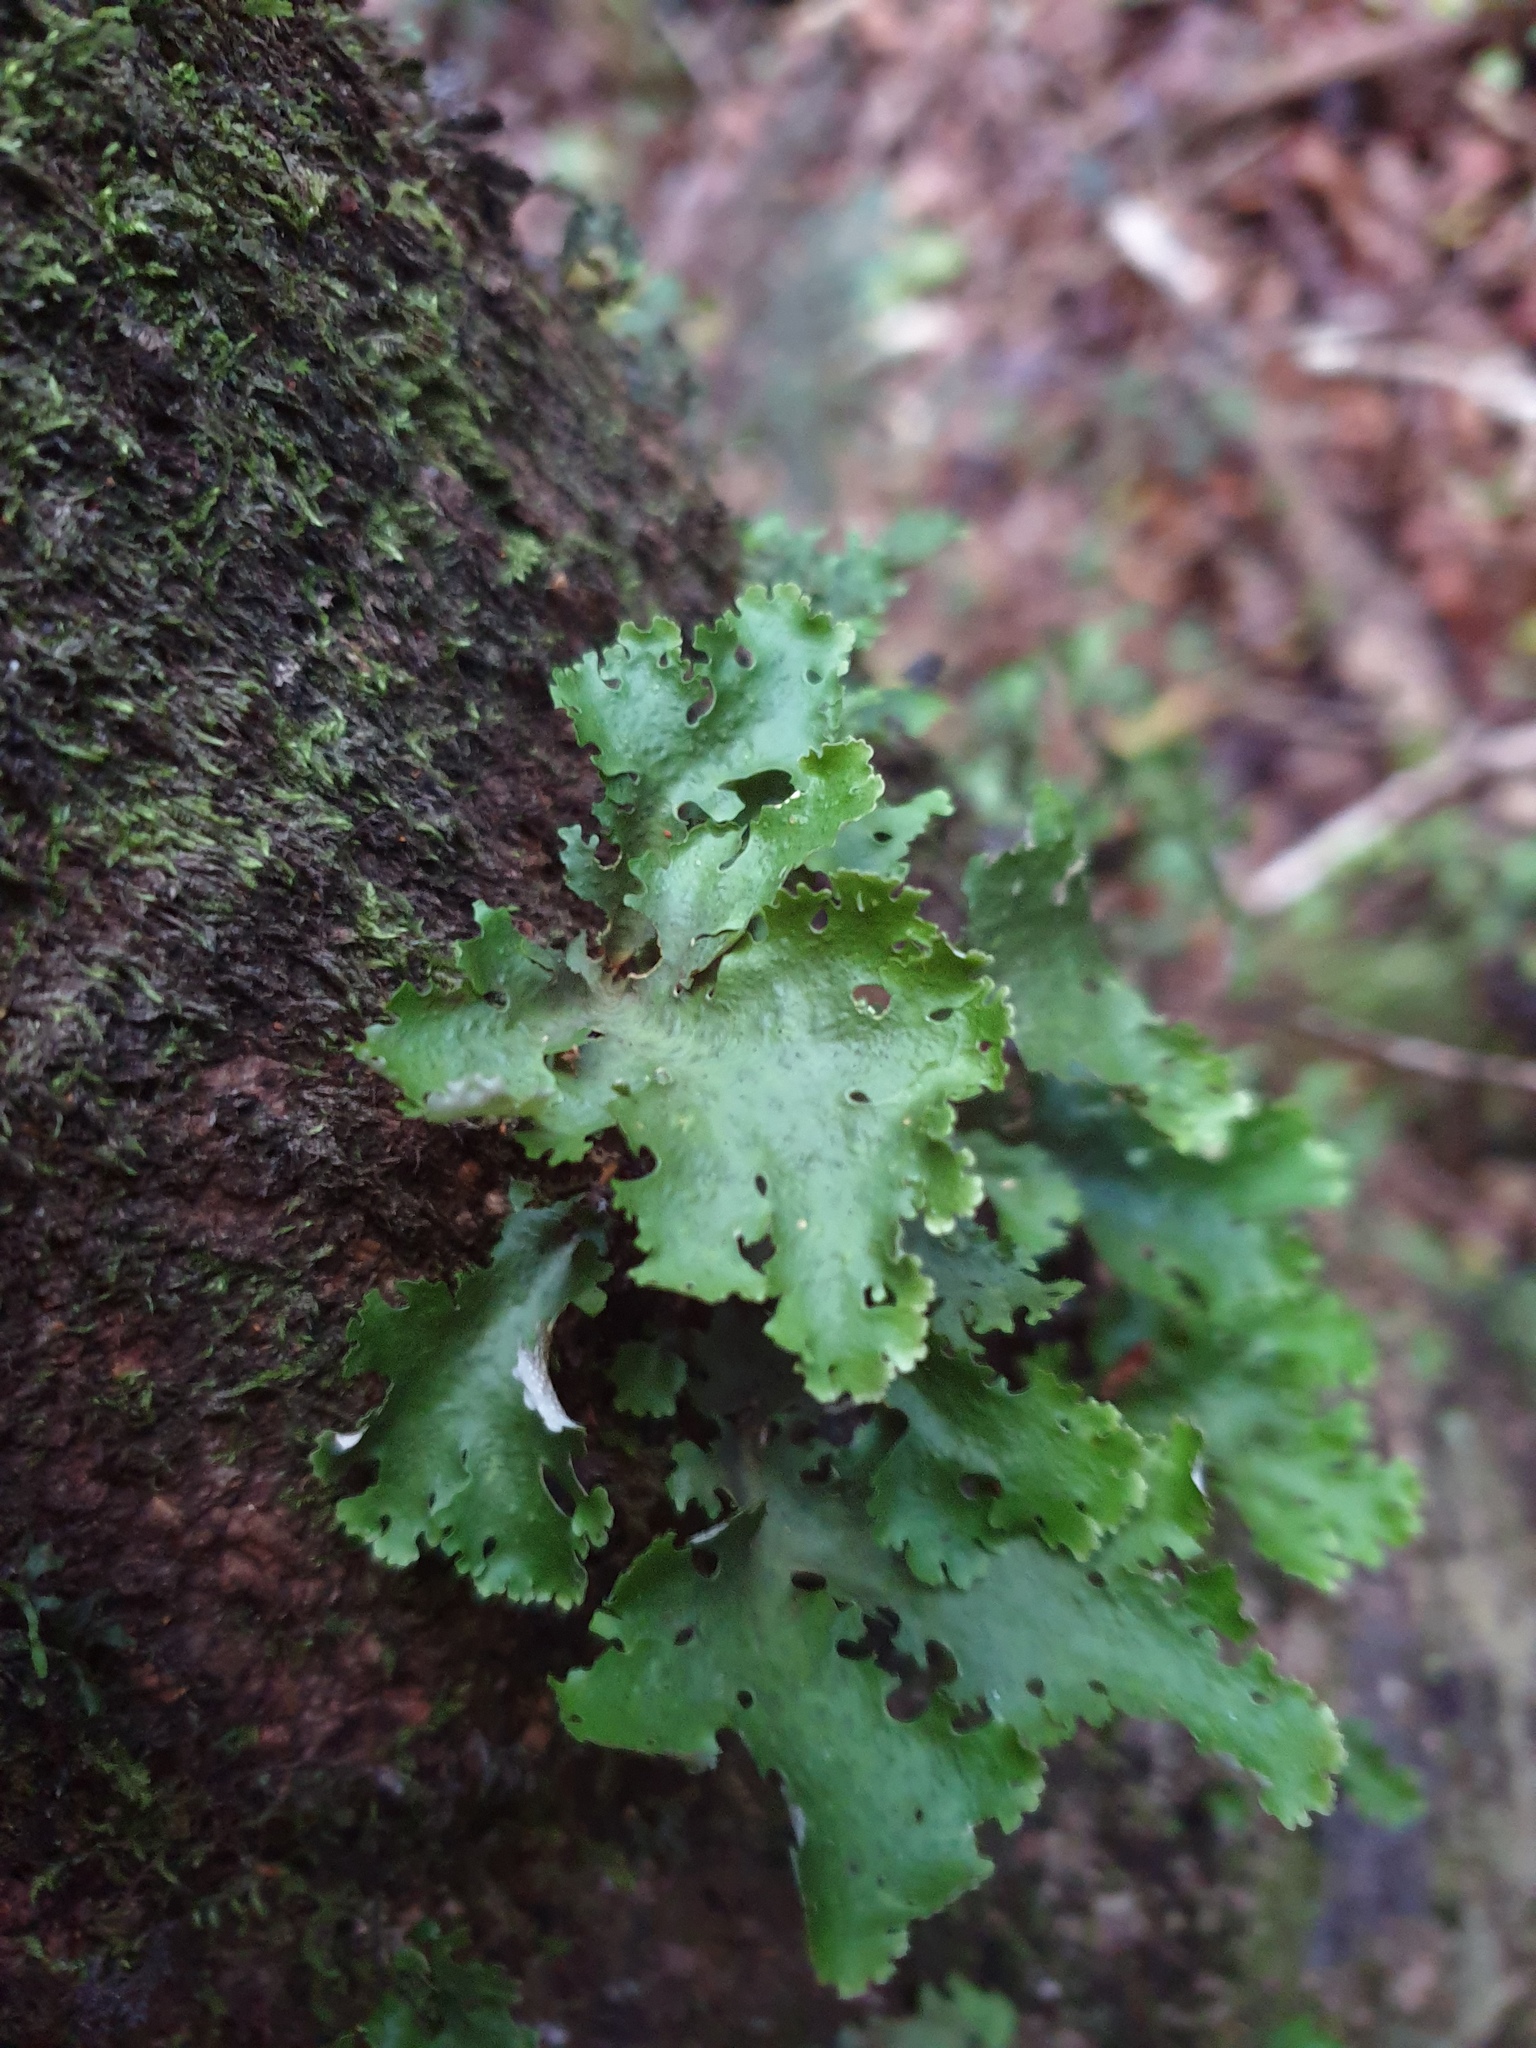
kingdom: Fungi
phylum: Ascomycota
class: Lecanoromycetes
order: Peltigerales
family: Lobariaceae
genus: Sticta
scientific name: Sticta filix
